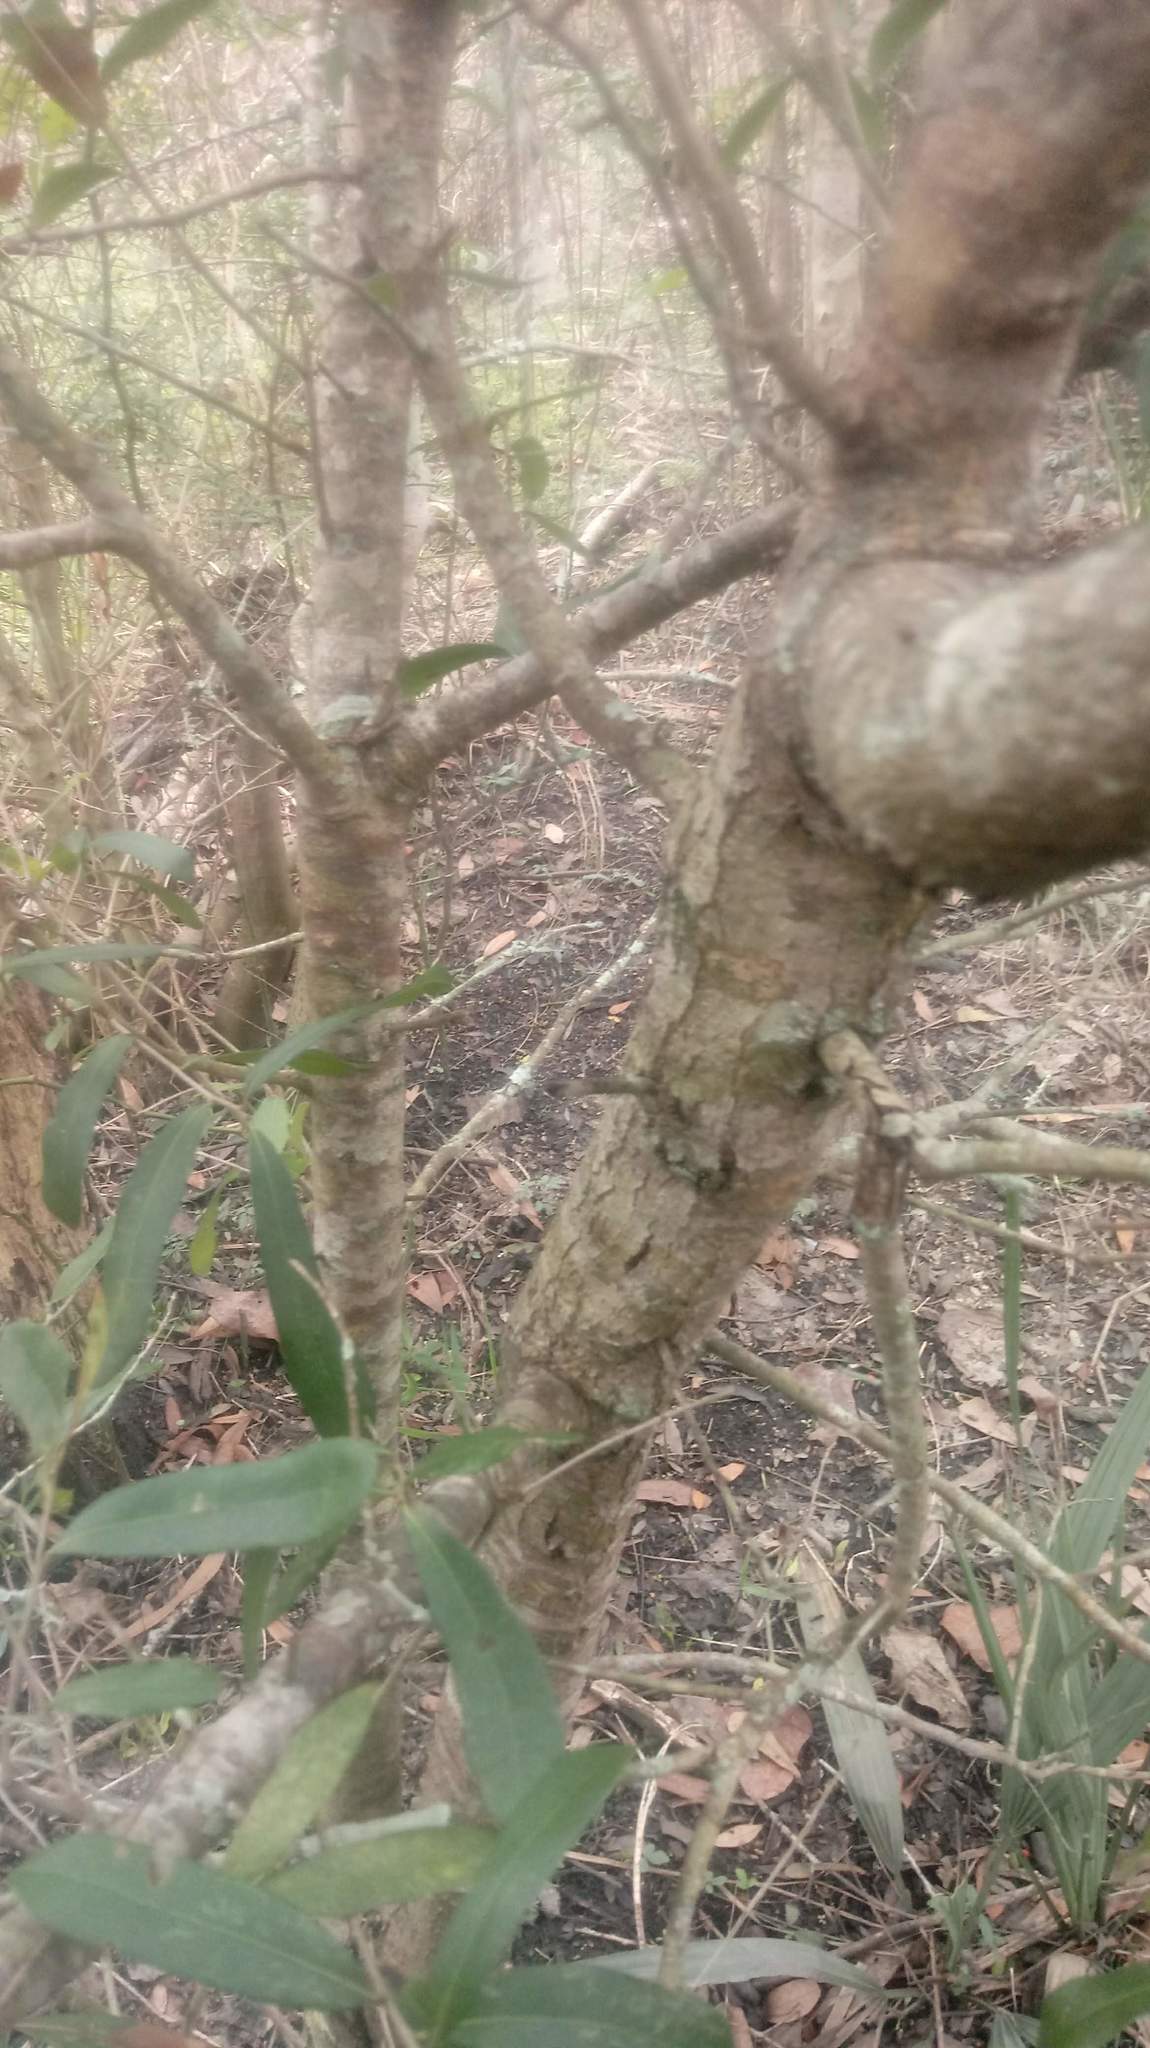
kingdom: Plantae
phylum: Tracheophyta
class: Magnoliopsida
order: Fagales
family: Fagaceae
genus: Quercus
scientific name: Quercus virginiana
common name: Southern live oak
